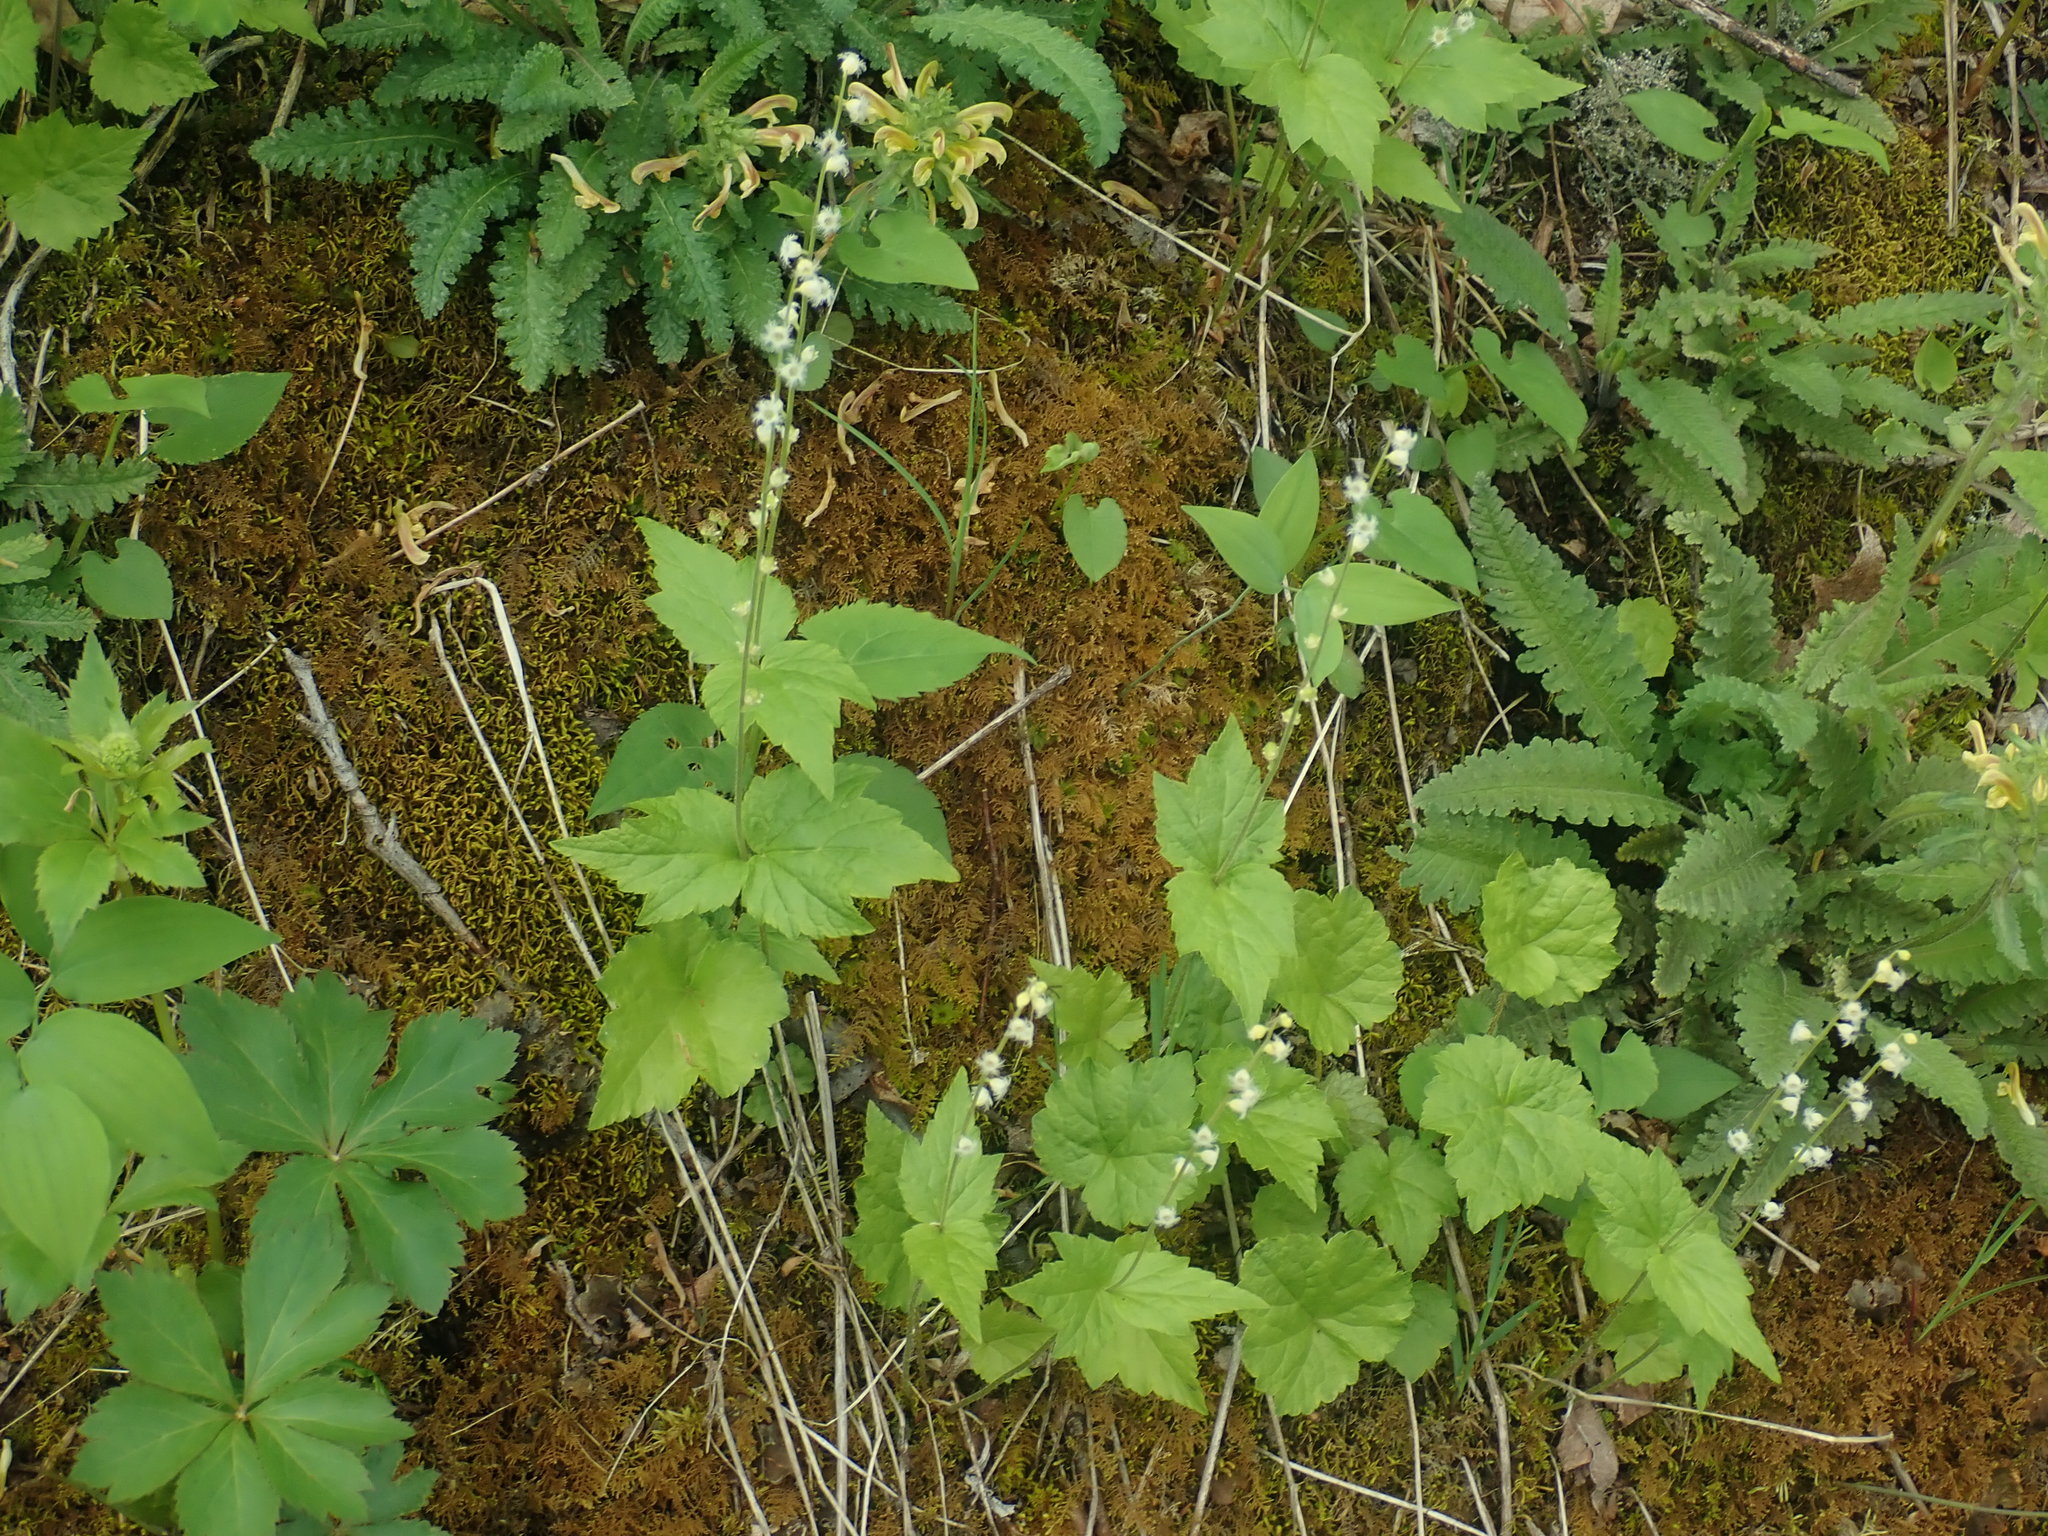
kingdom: Plantae
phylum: Tracheophyta
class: Magnoliopsida
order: Saxifragales
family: Saxifragaceae
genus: Mitella
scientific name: Mitella diphylla
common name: Coolwort
